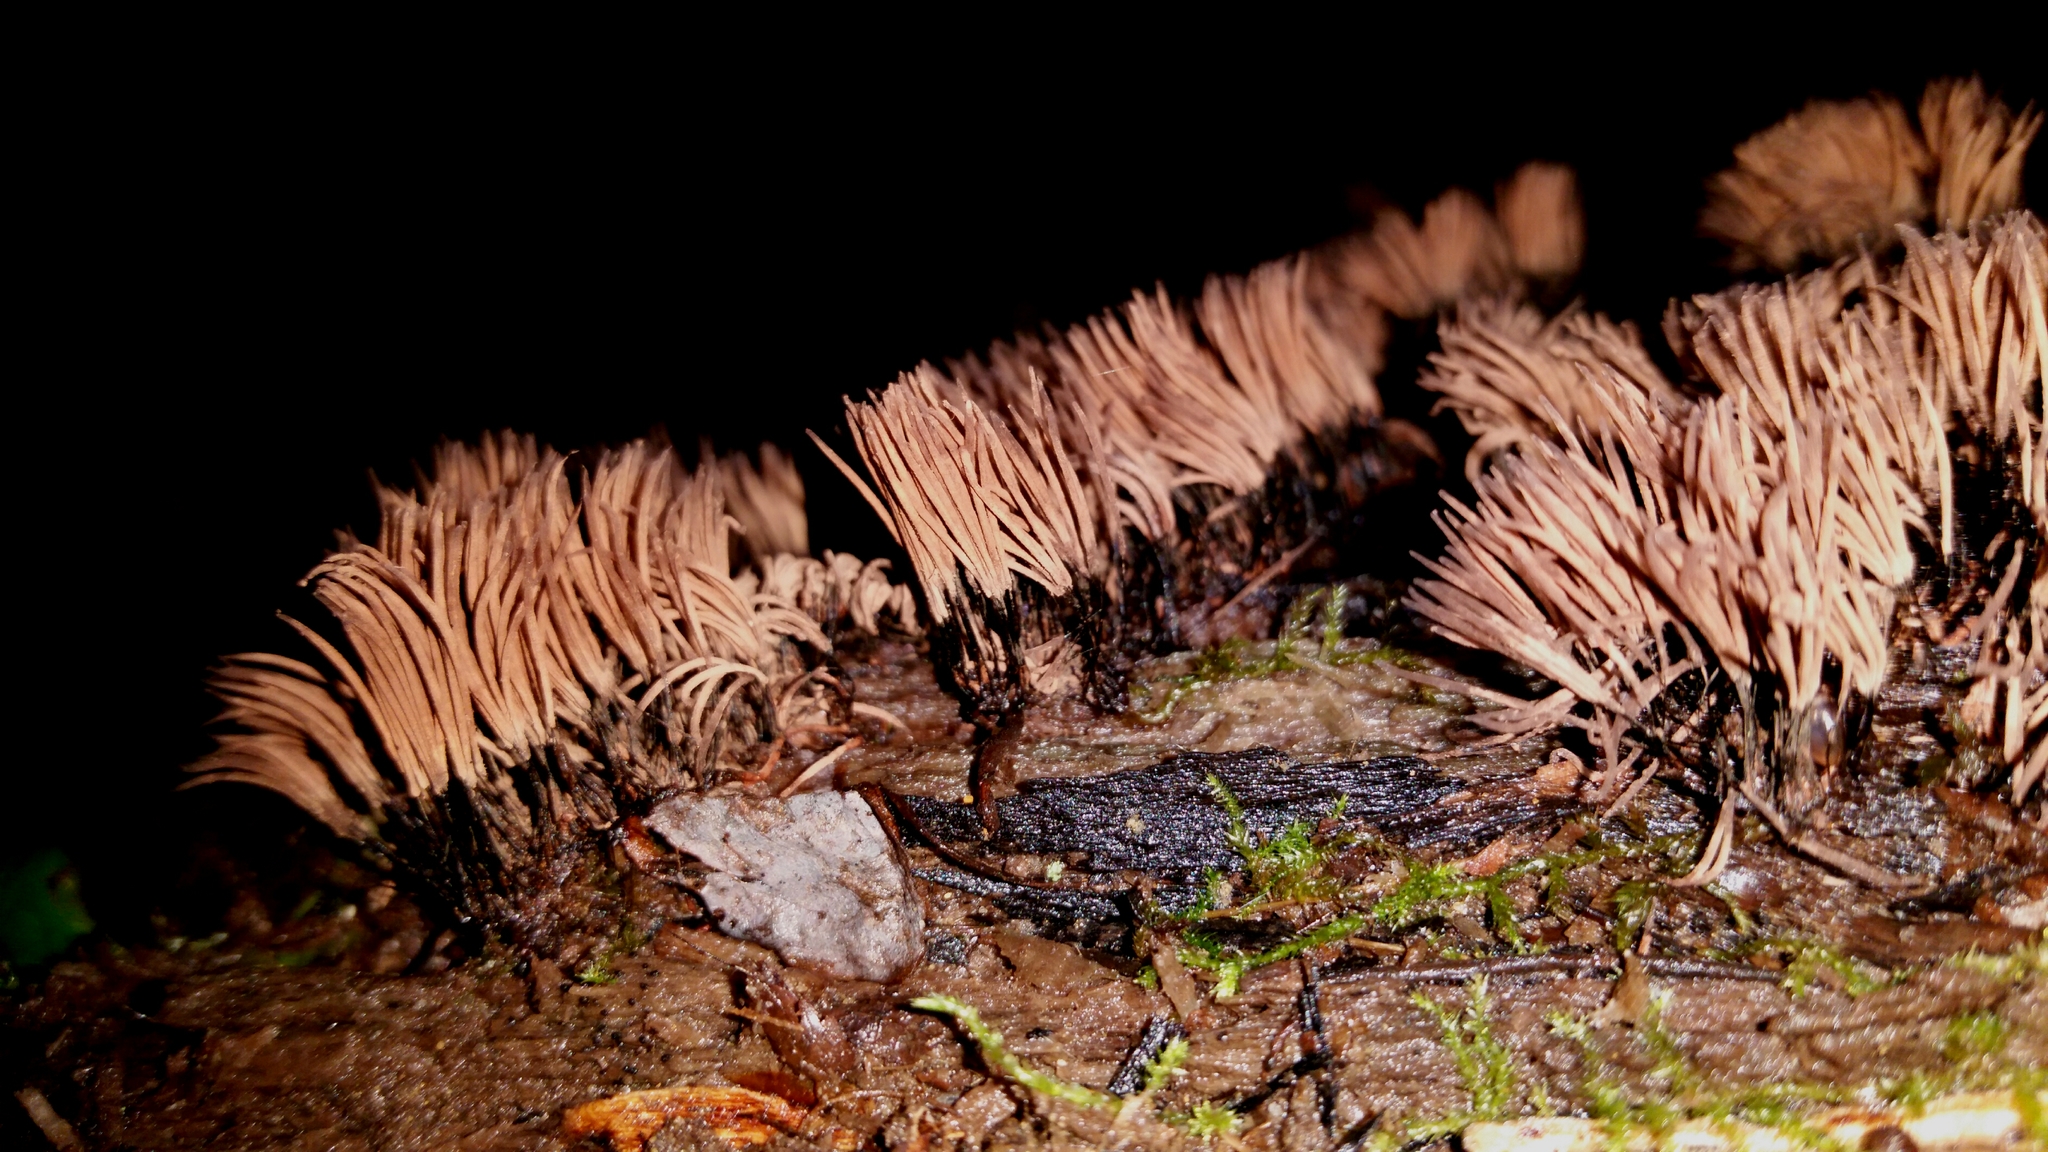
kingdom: Protozoa
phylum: Mycetozoa
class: Myxomycetes
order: Stemonitidales
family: Stemonitidaceae
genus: Stemonitis
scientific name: Stemonitis splendens
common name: Chocolate tube slime
